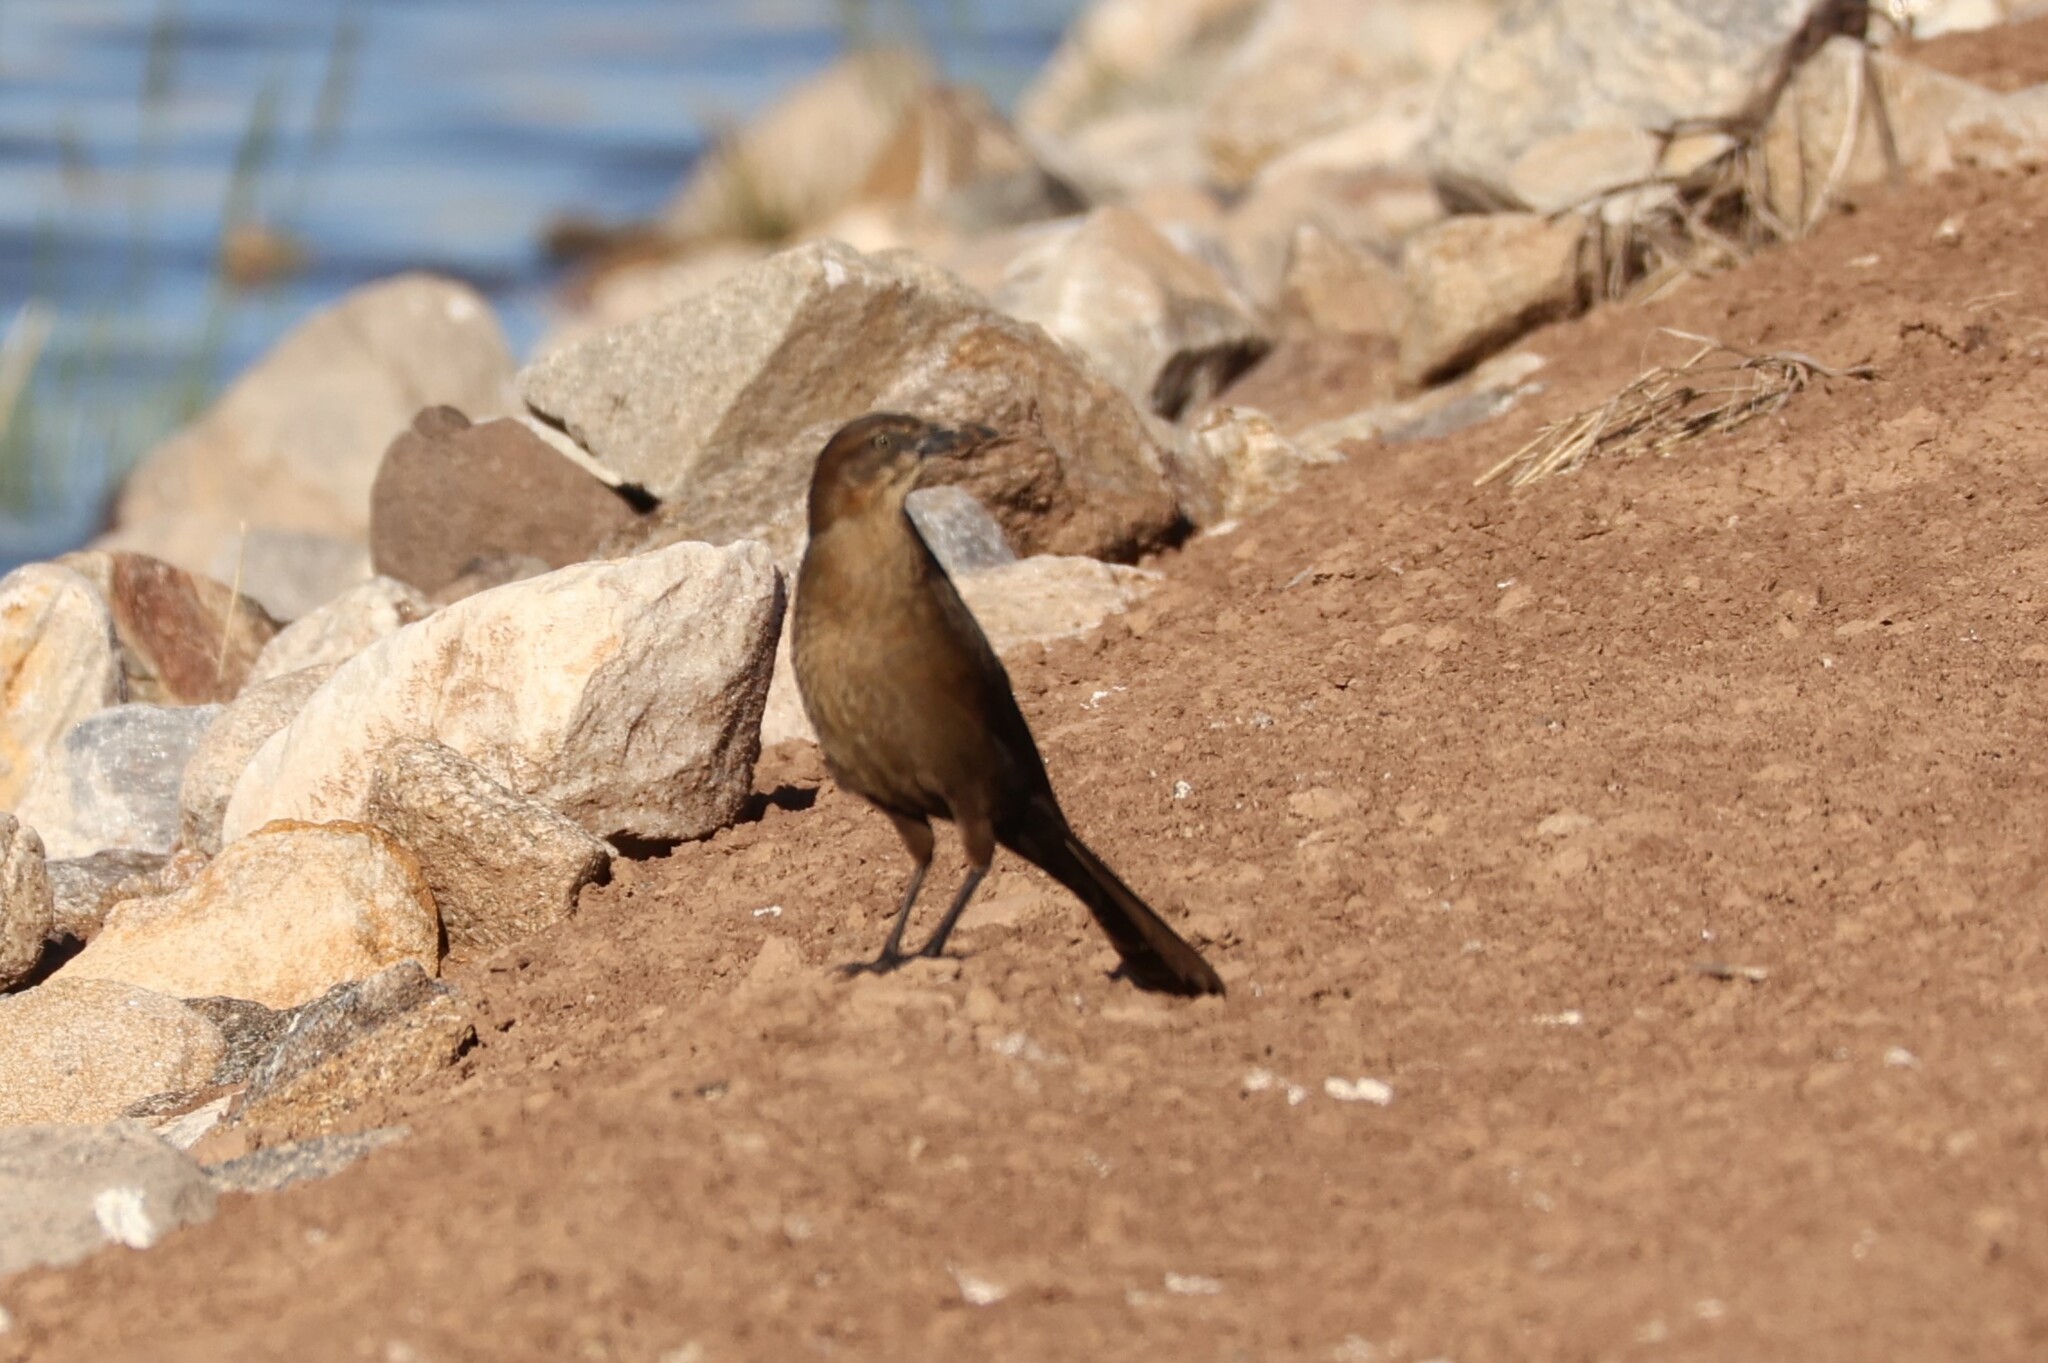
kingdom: Animalia
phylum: Chordata
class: Aves
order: Passeriformes
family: Icteridae
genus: Quiscalus
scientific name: Quiscalus mexicanus
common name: Great-tailed grackle
